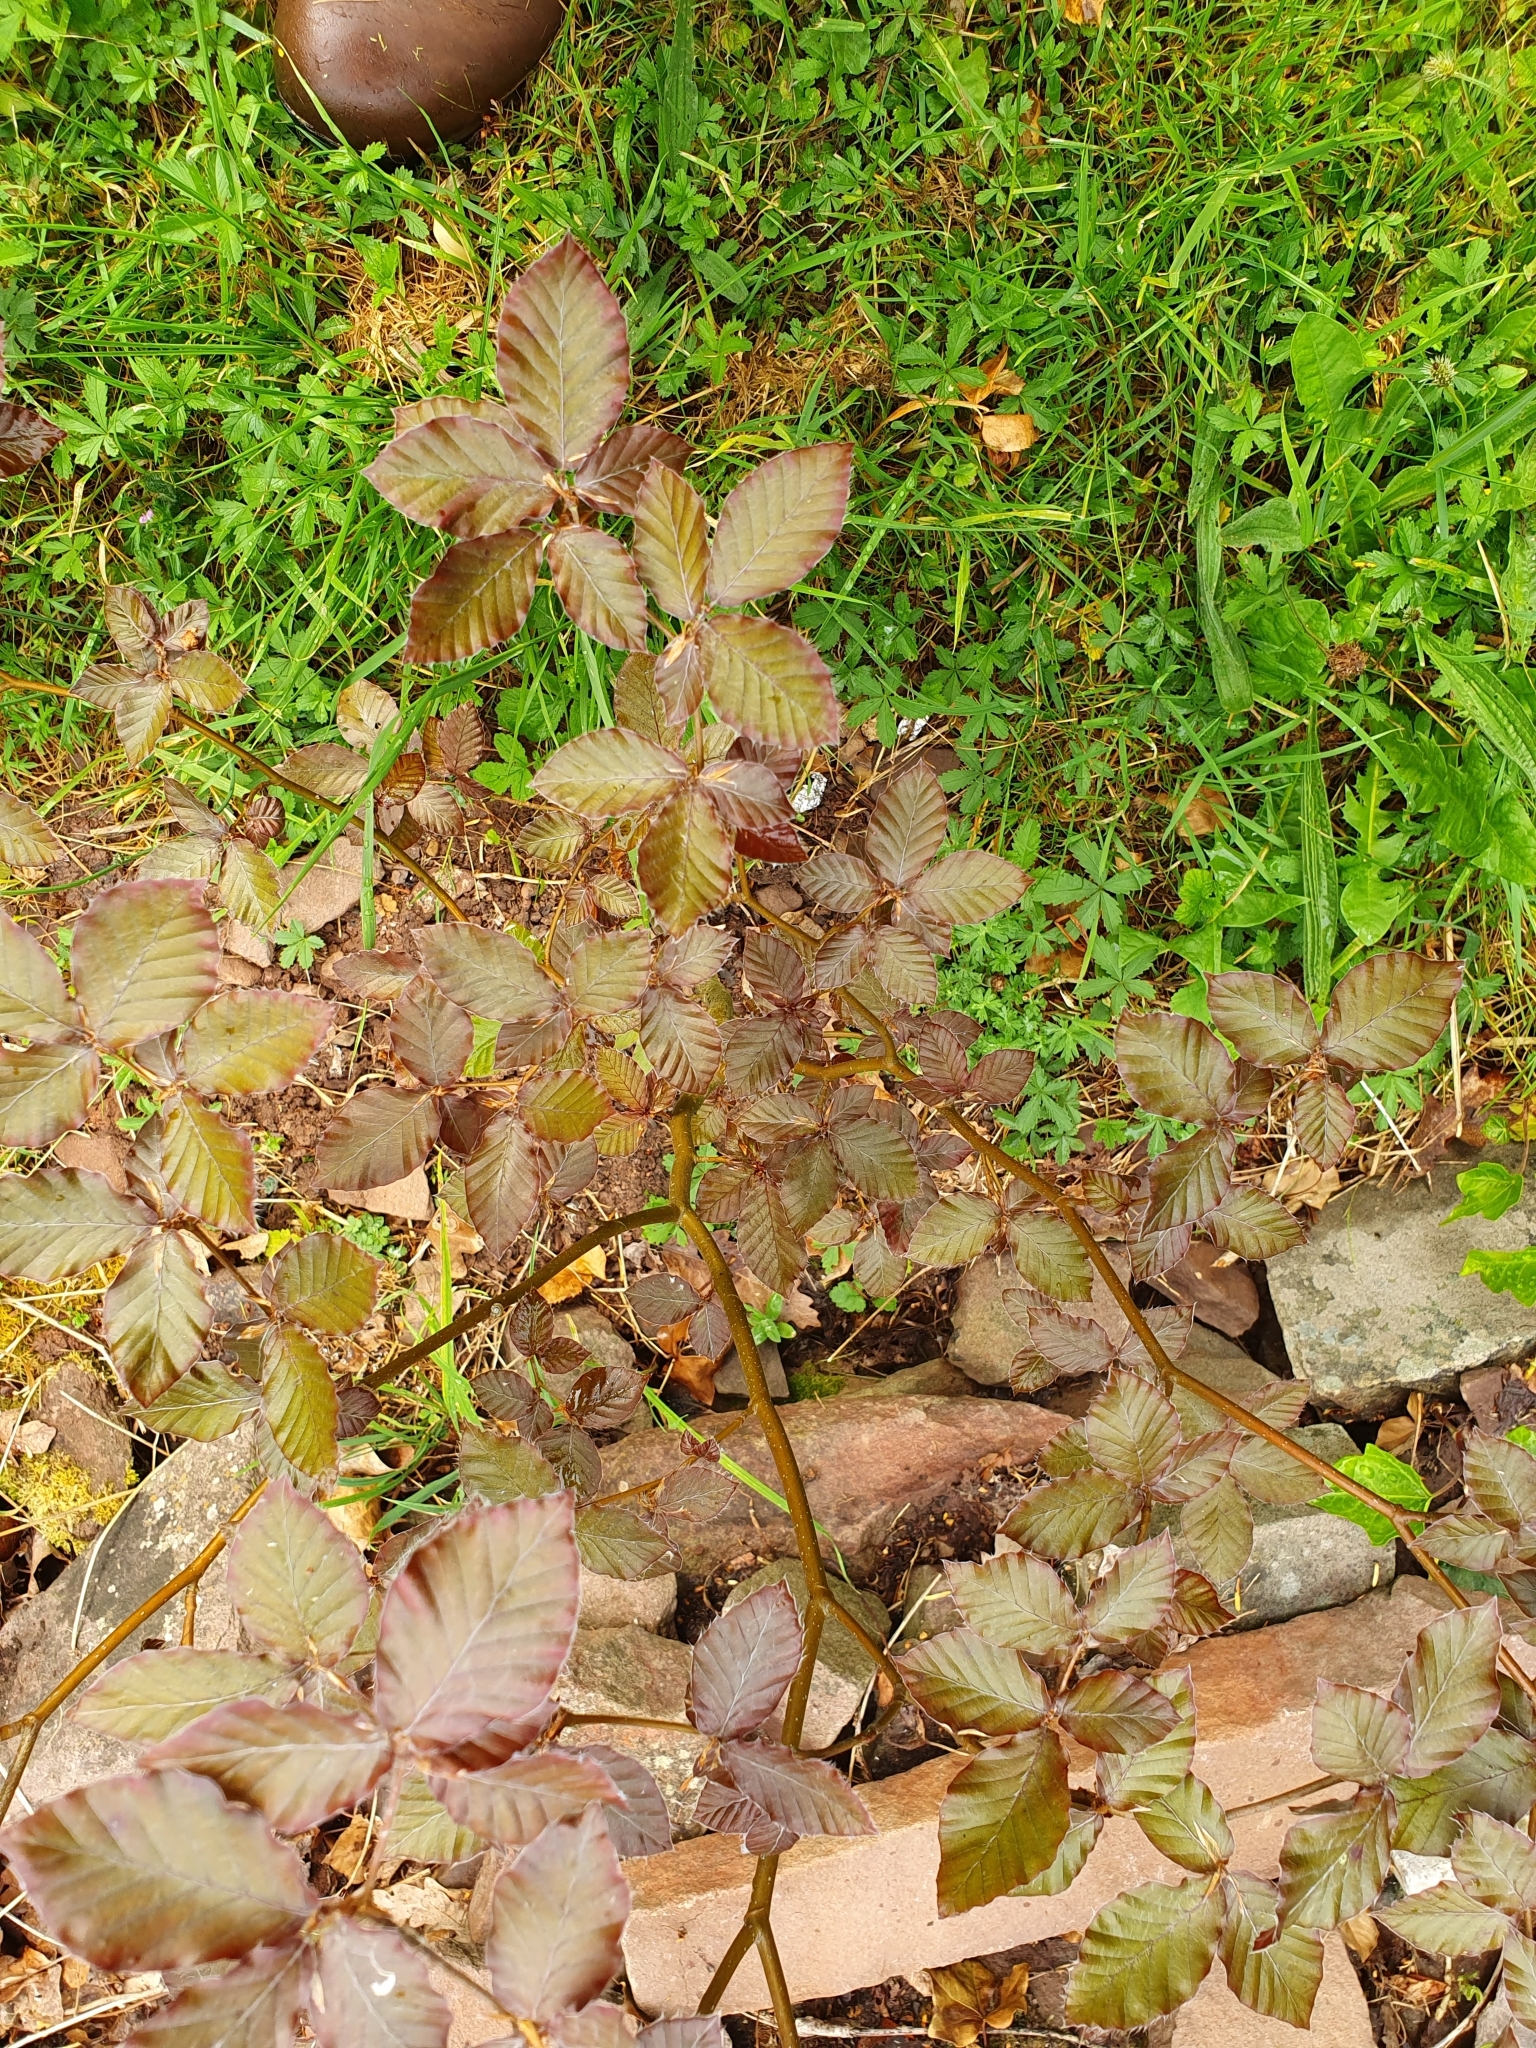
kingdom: Plantae
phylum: Tracheophyta
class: Magnoliopsida
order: Fagales
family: Fagaceae
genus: Fagus
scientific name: Fagus sylvatica
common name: Beech
